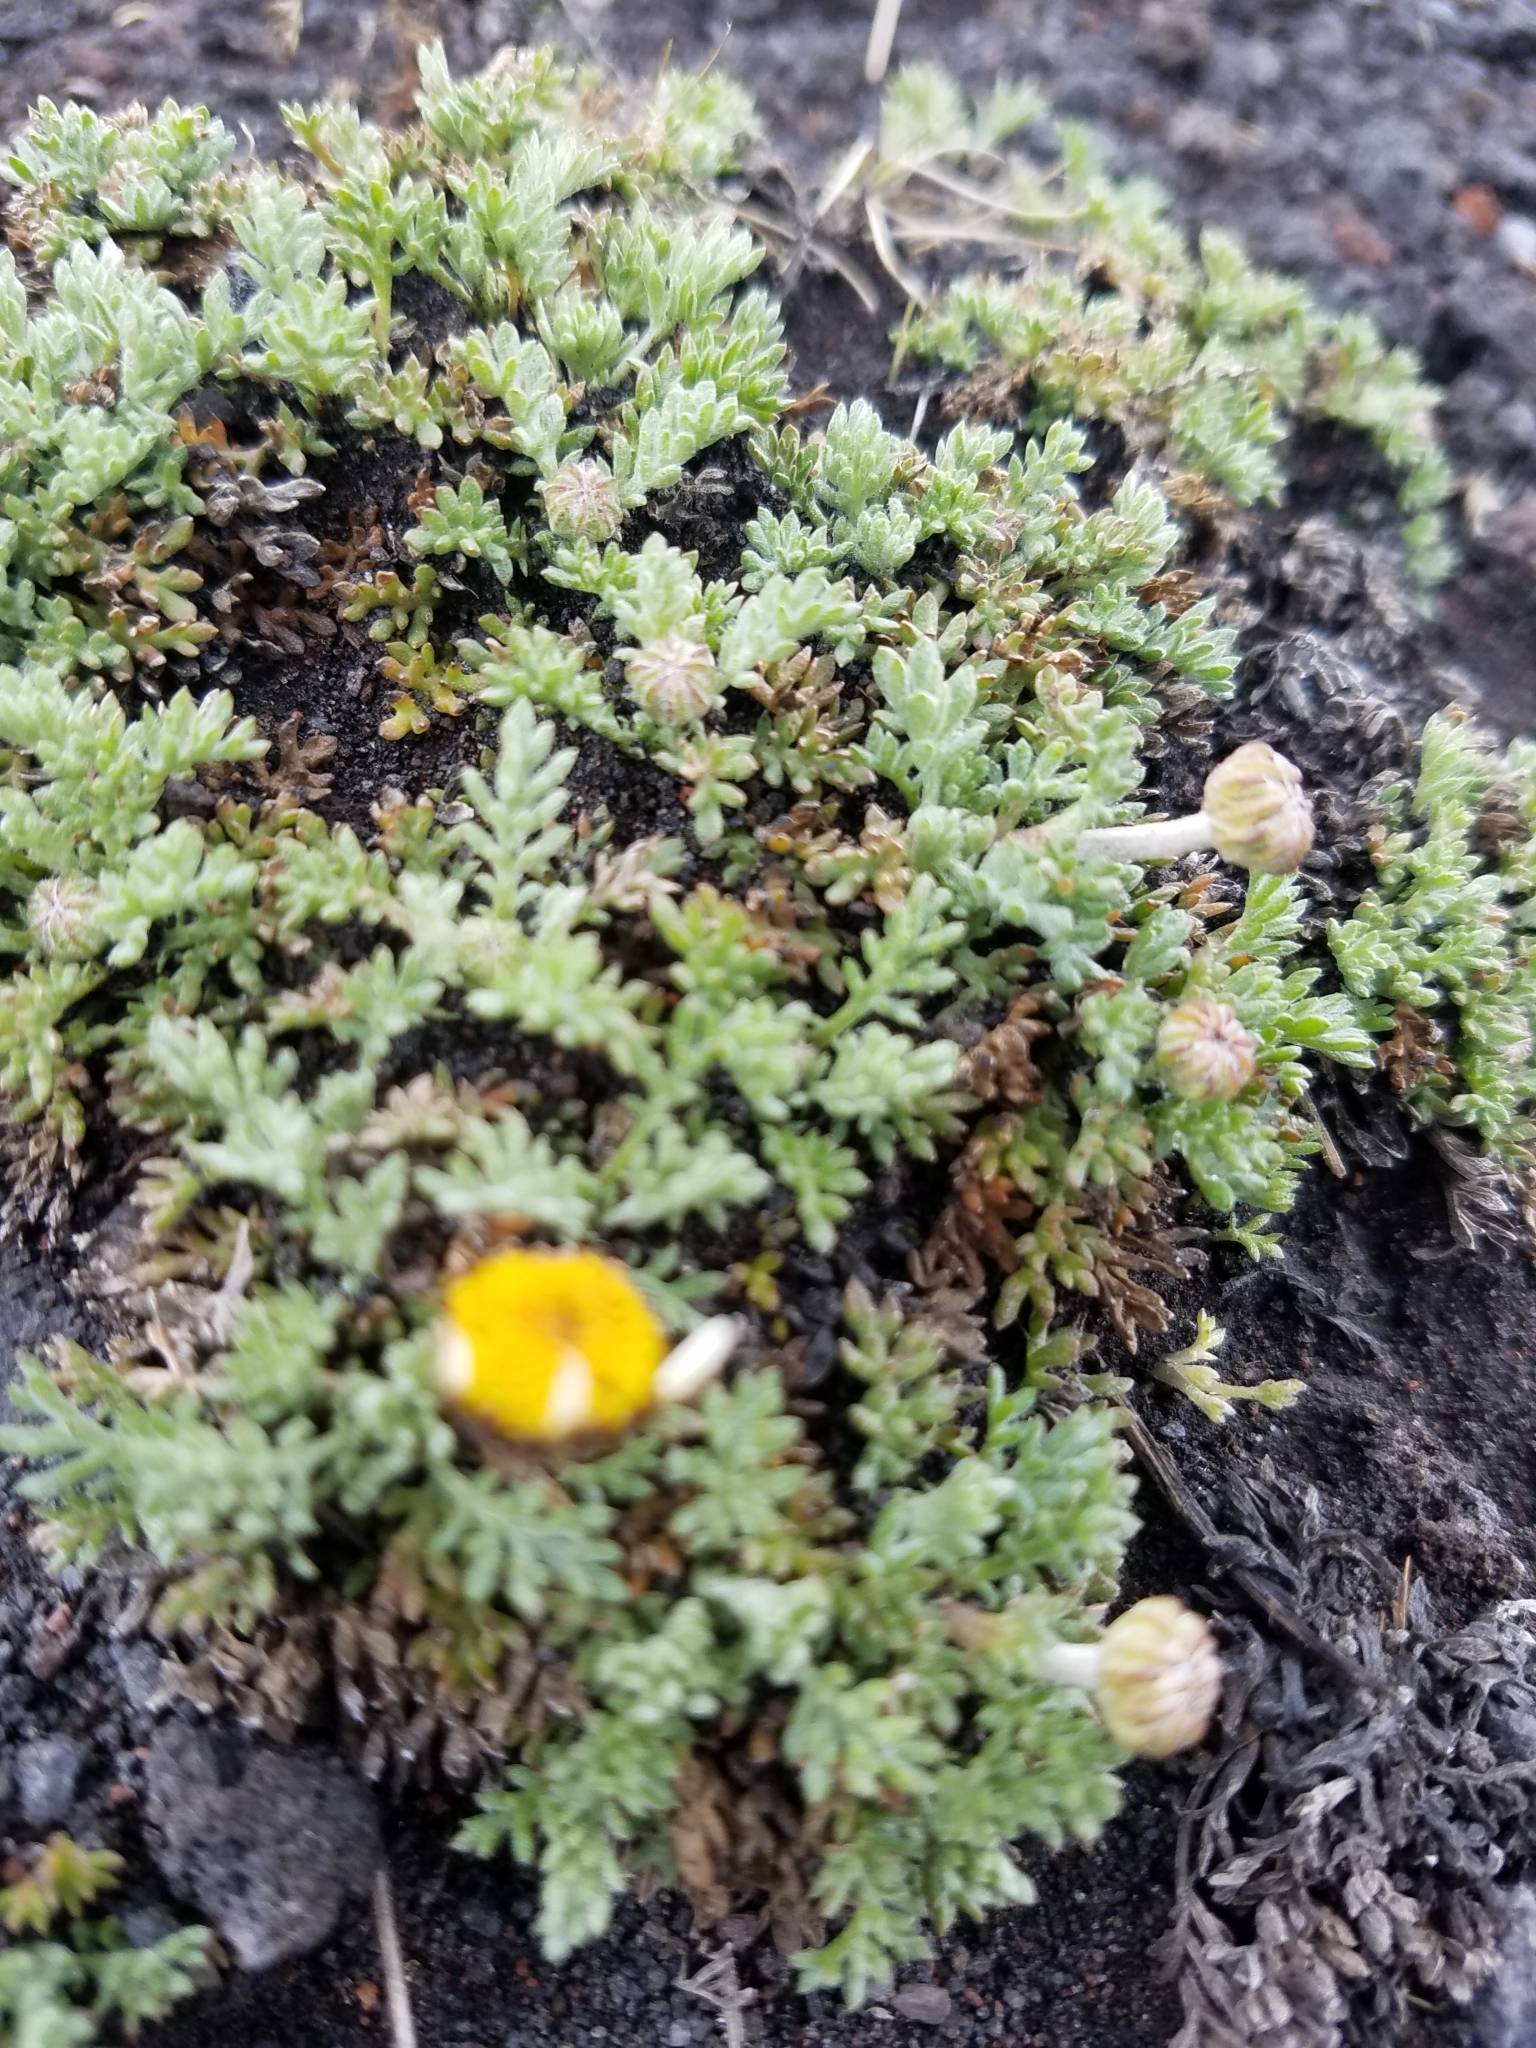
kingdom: Plantae
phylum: Tracheophyta
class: Magnoliopsida
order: Asterales
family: Asteraceae
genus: Anthemis
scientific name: Anthemis aetnensis
